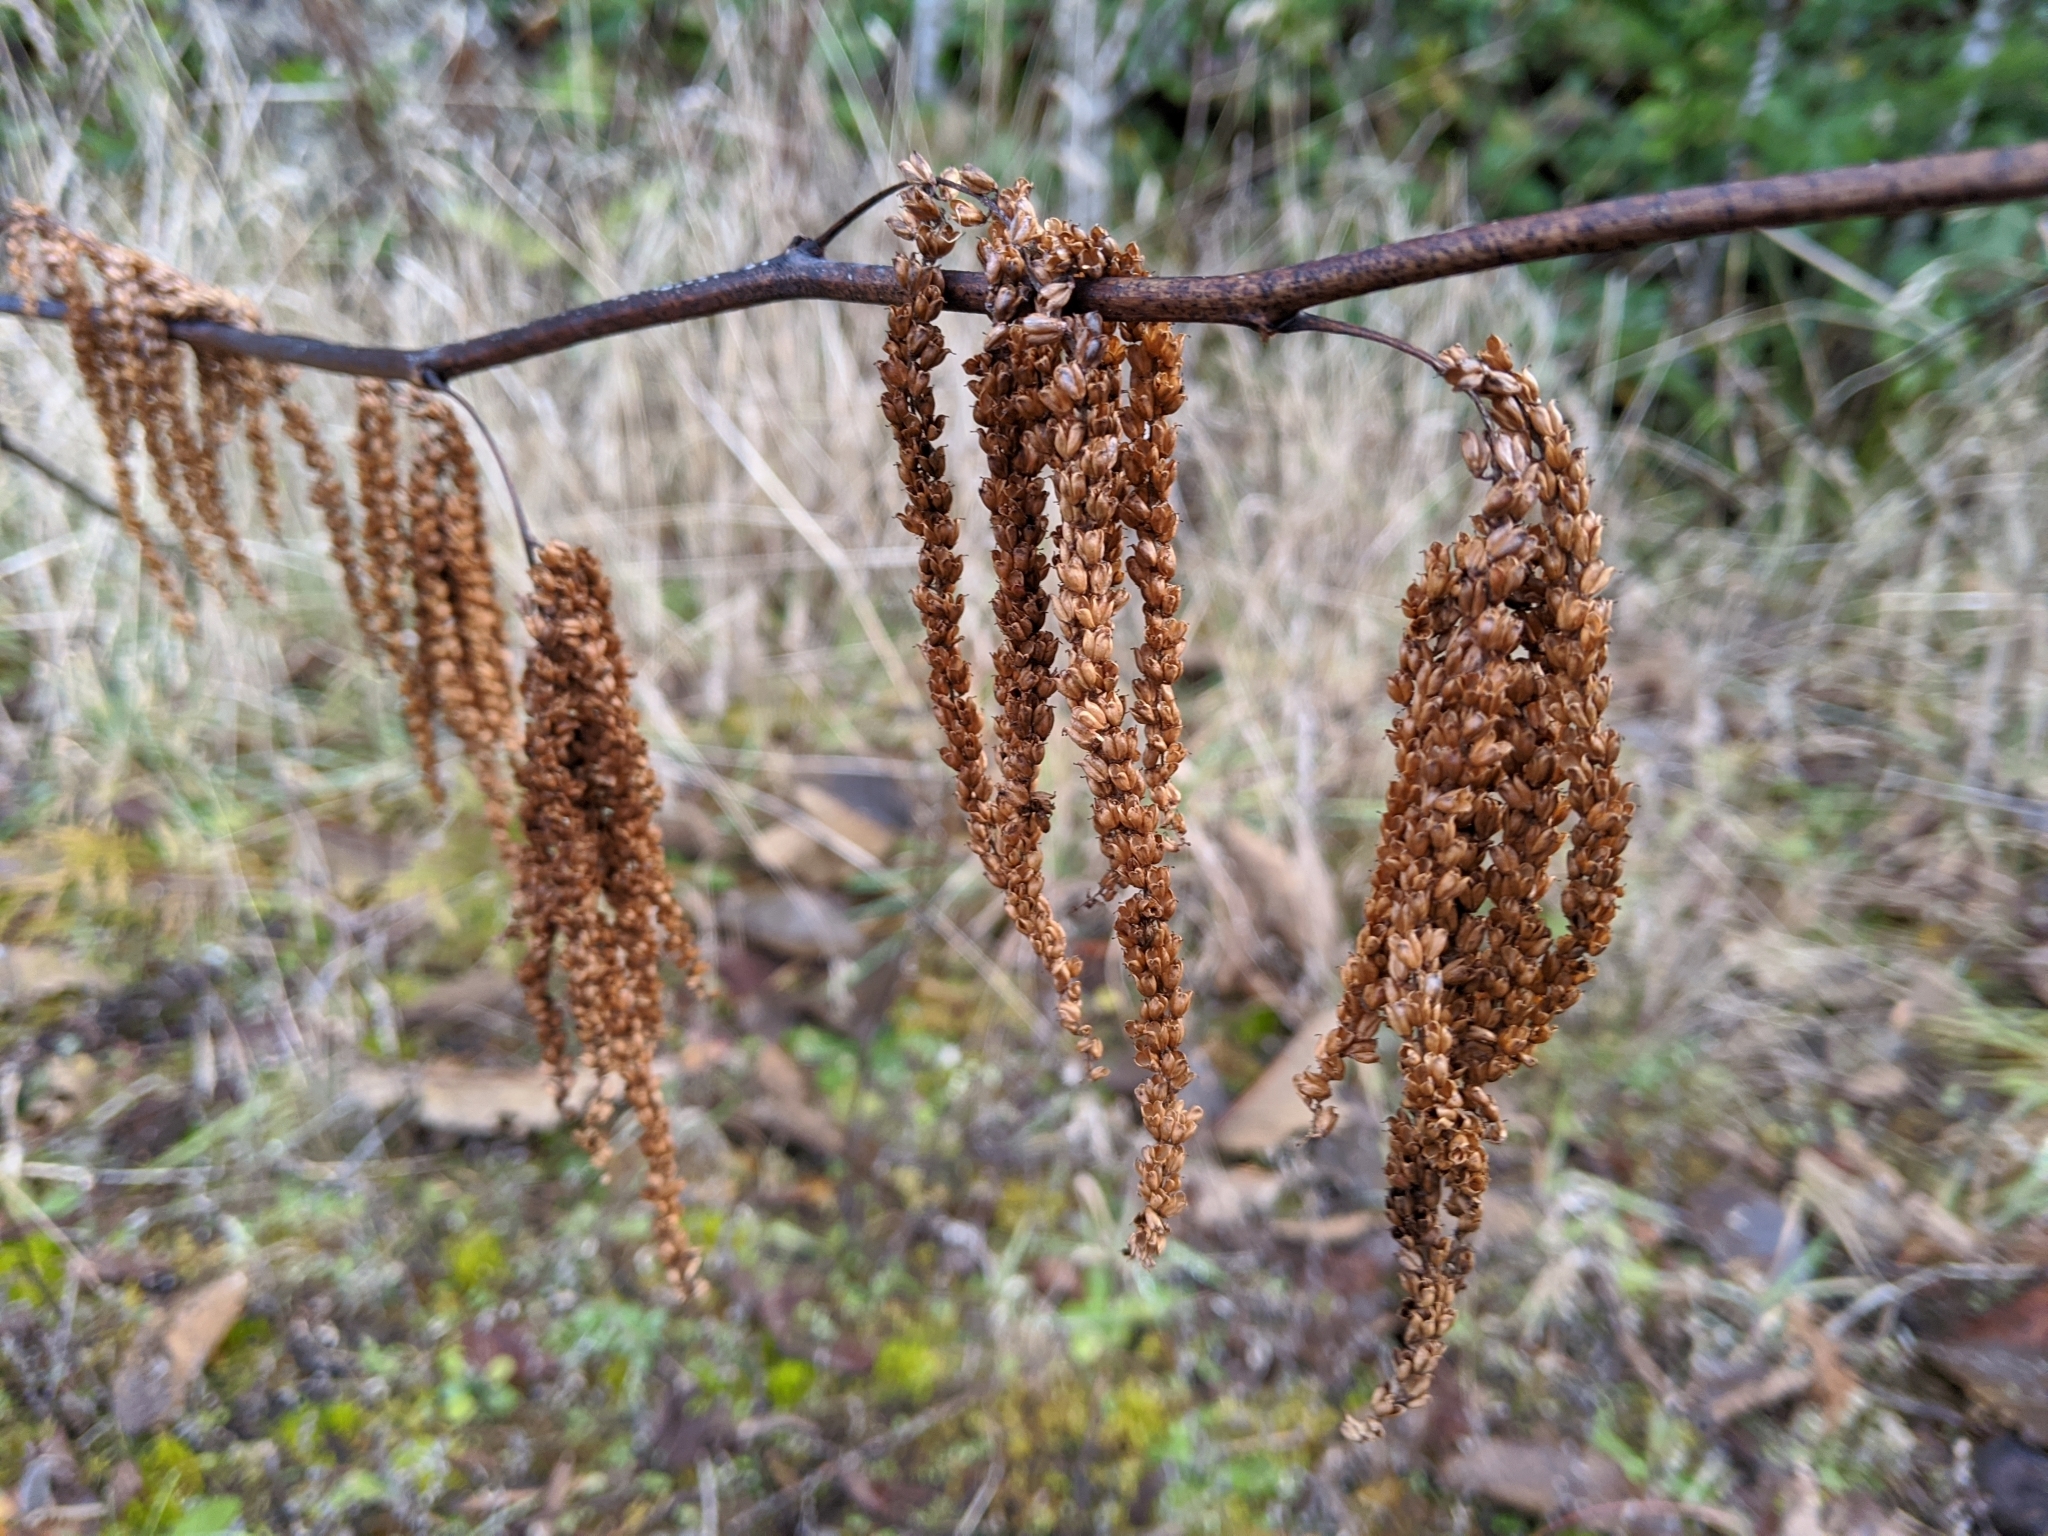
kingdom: Plantae
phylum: Tracheophyta
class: Magnoliopsida
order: Rosales
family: Rosaceae
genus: Aruncus
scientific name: Aruncus dioicus
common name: Buck's-beard
